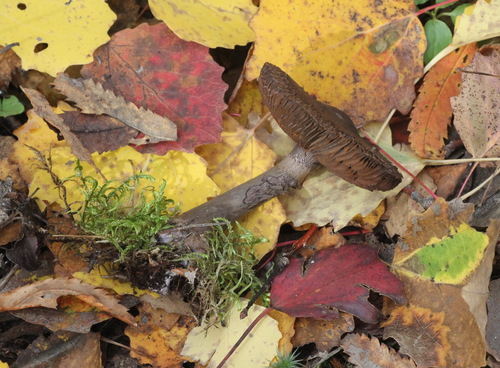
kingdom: Fungi
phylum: Basidiomycota
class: Agaricomycetes
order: Agaricales
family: Cortinariaceae
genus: Cortinarius
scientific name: Cortinarius violaceus
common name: Violet webcap
